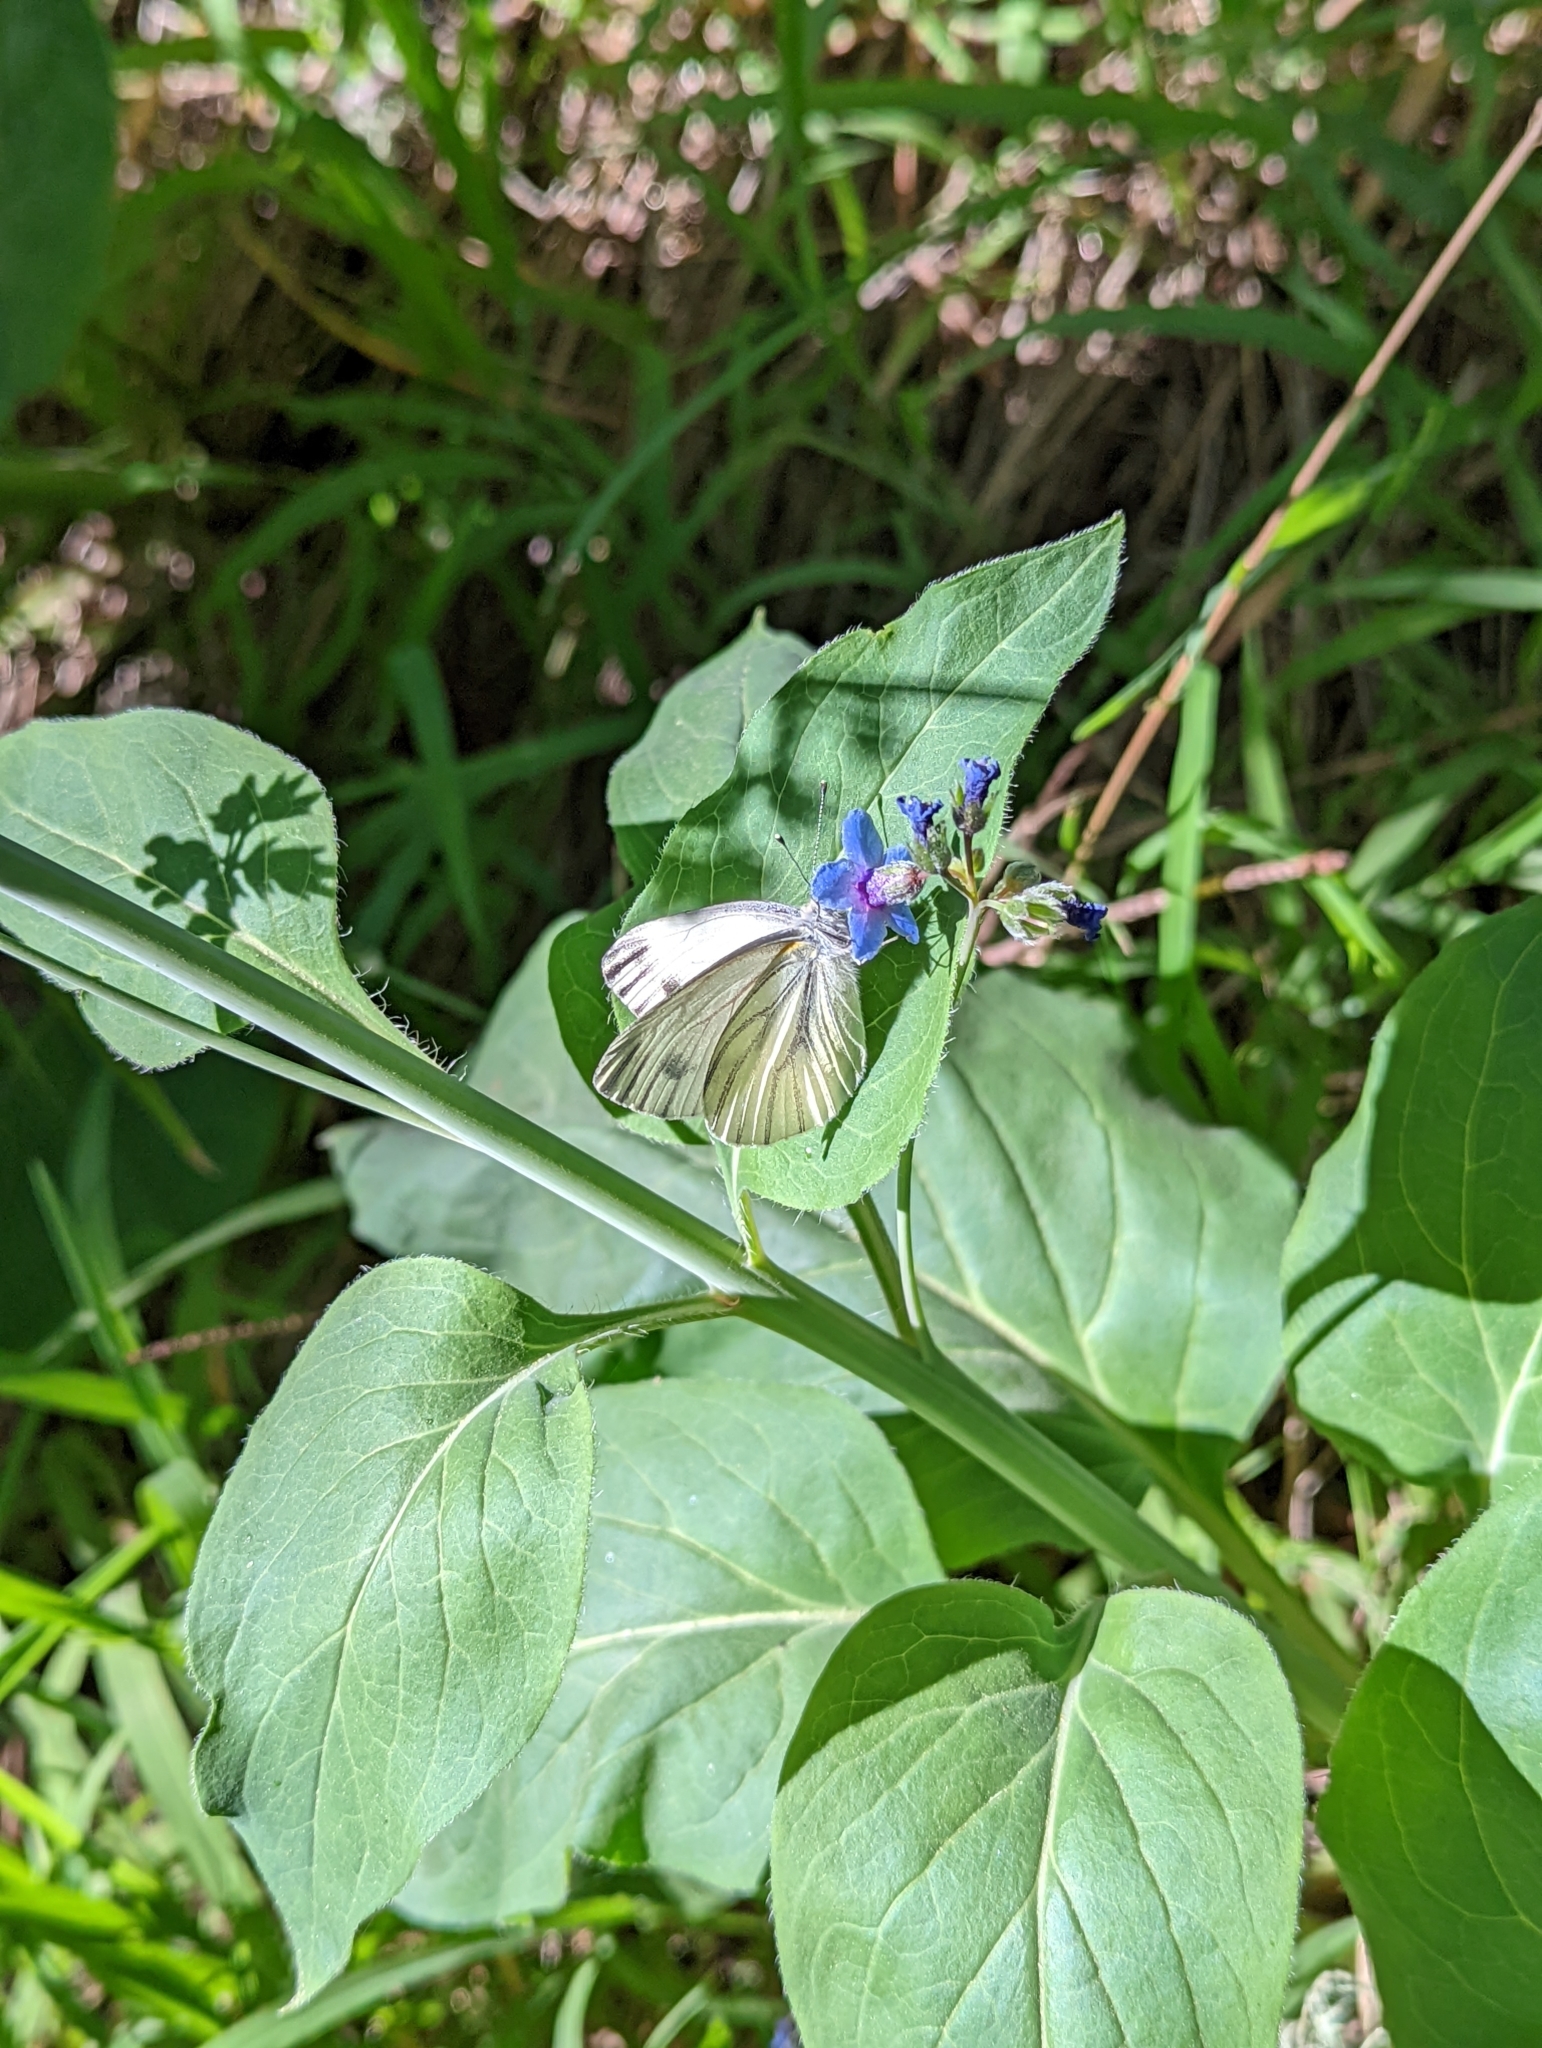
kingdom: Animalia
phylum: Arthropoda
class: Insecta
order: Lepidoptera
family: Pieridae
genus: Pieris
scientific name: Pieris marginalis
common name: Margined white
